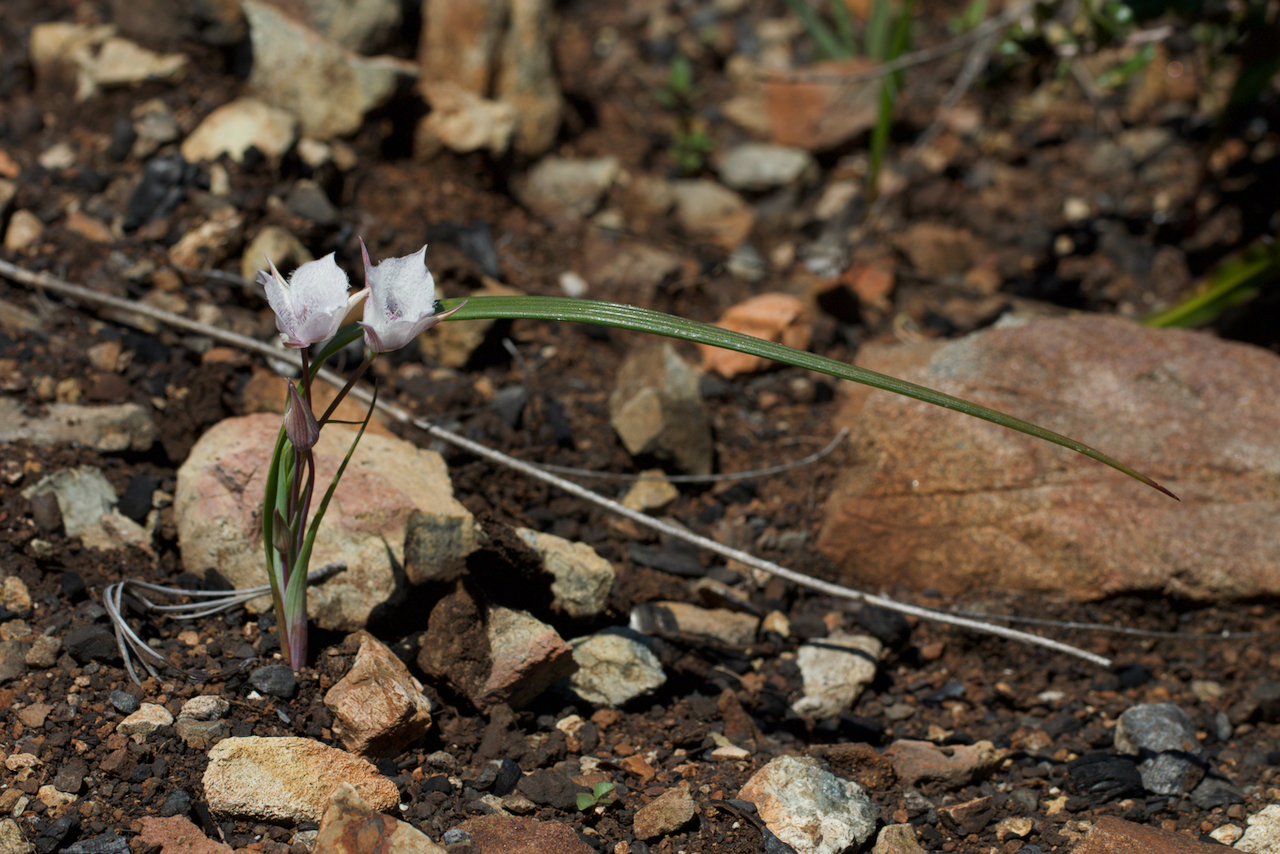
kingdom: Plantae
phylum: Tracheophyta
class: Liliopsida
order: Liliales
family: Liliaceae
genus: Calochortus
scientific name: Calochortus tolmiei
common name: Pussy-ears
